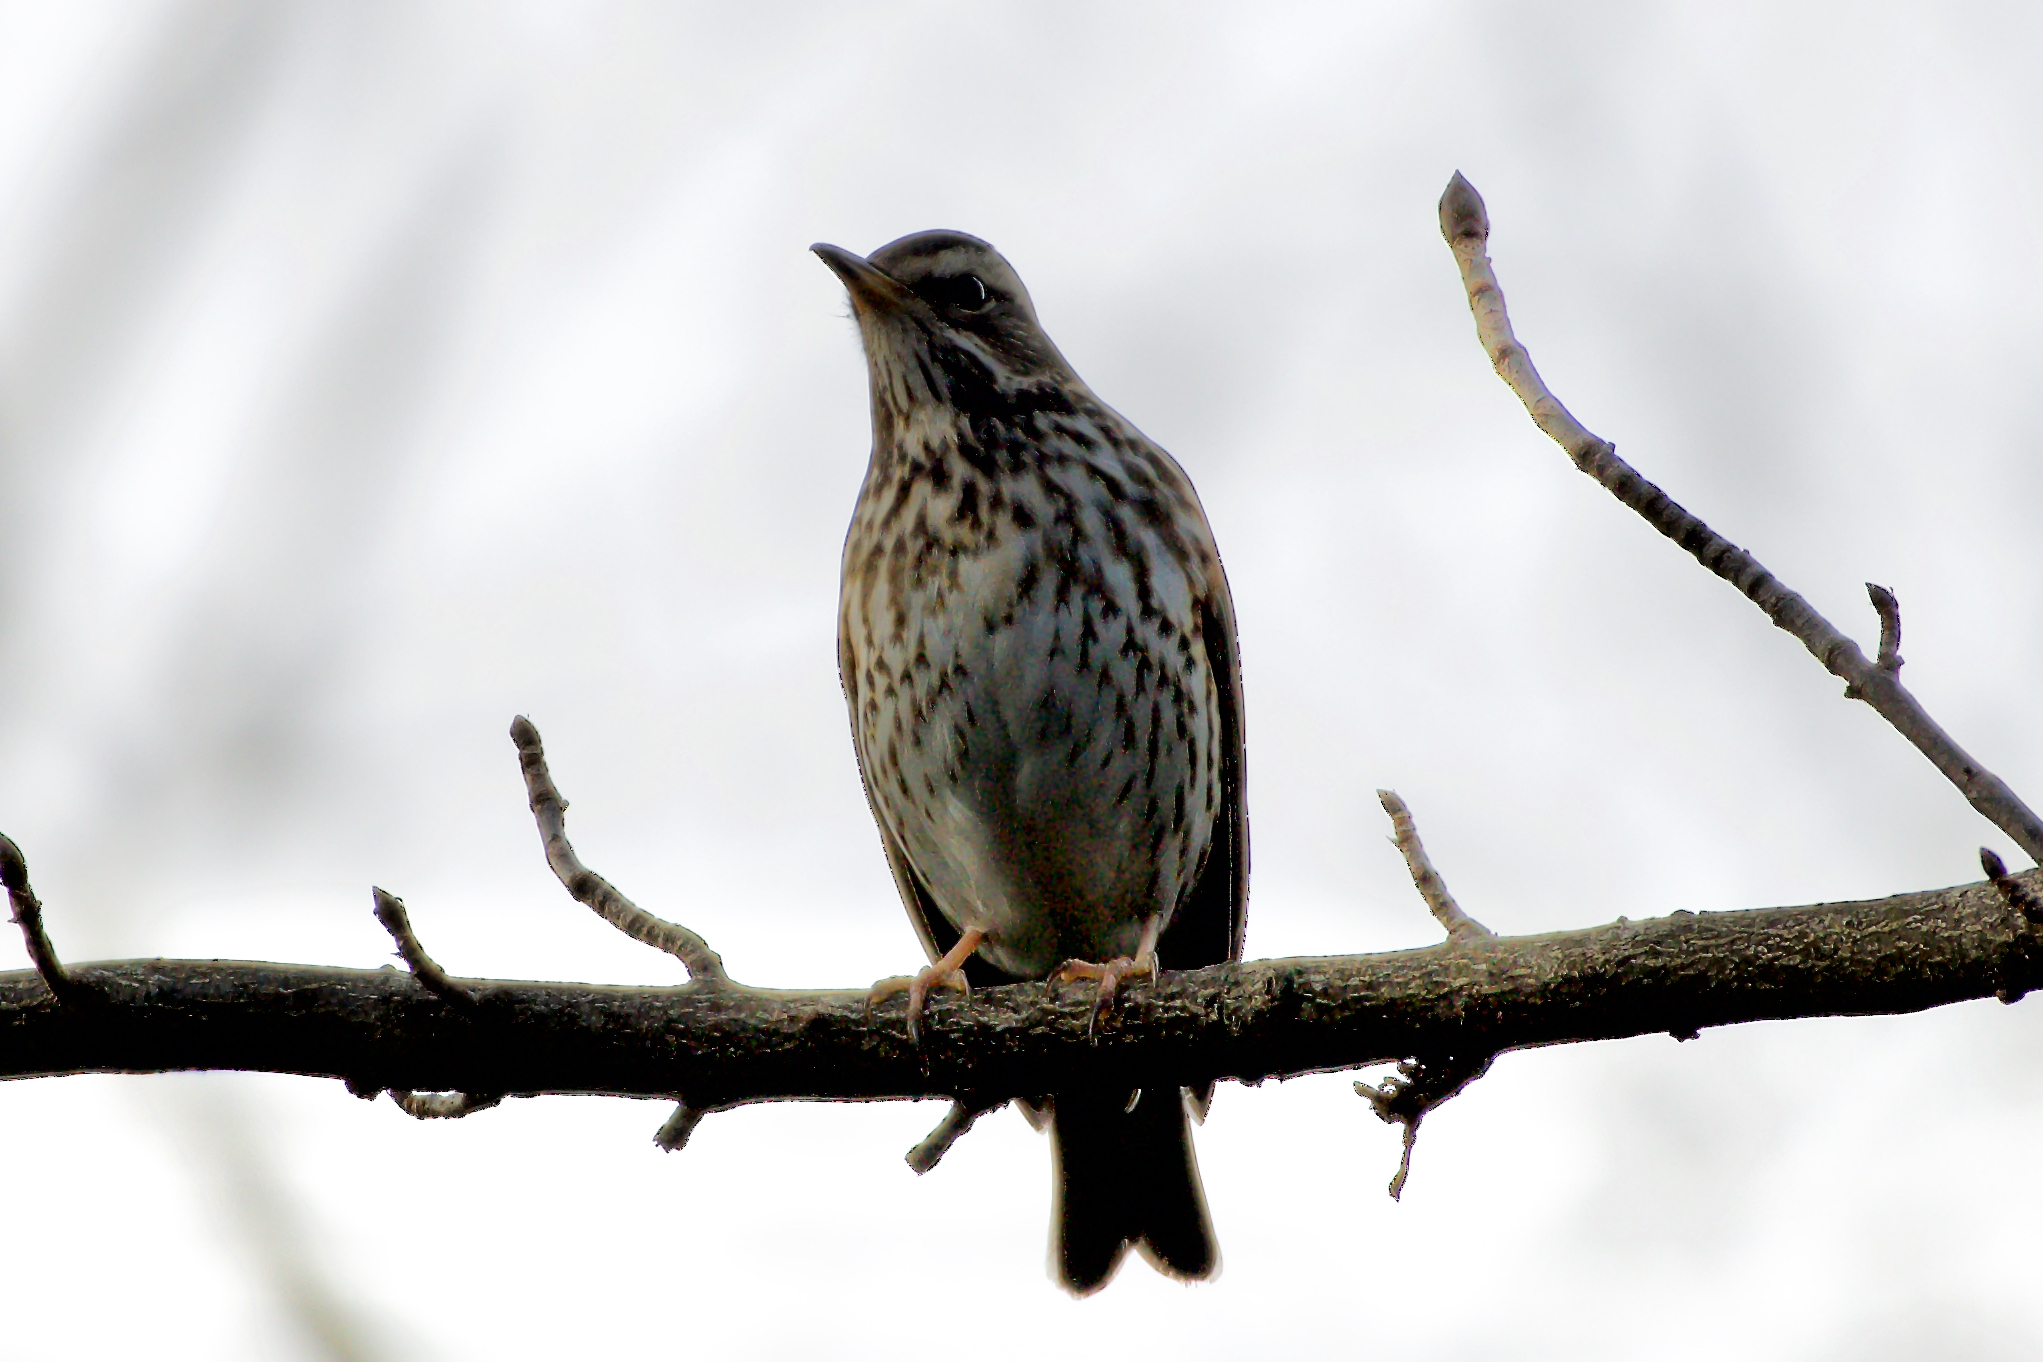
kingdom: Animalia
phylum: Chordata
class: Aves
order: Passeriformes
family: Turdidae
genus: Turdus
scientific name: Turdus iliacus
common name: Redwing
